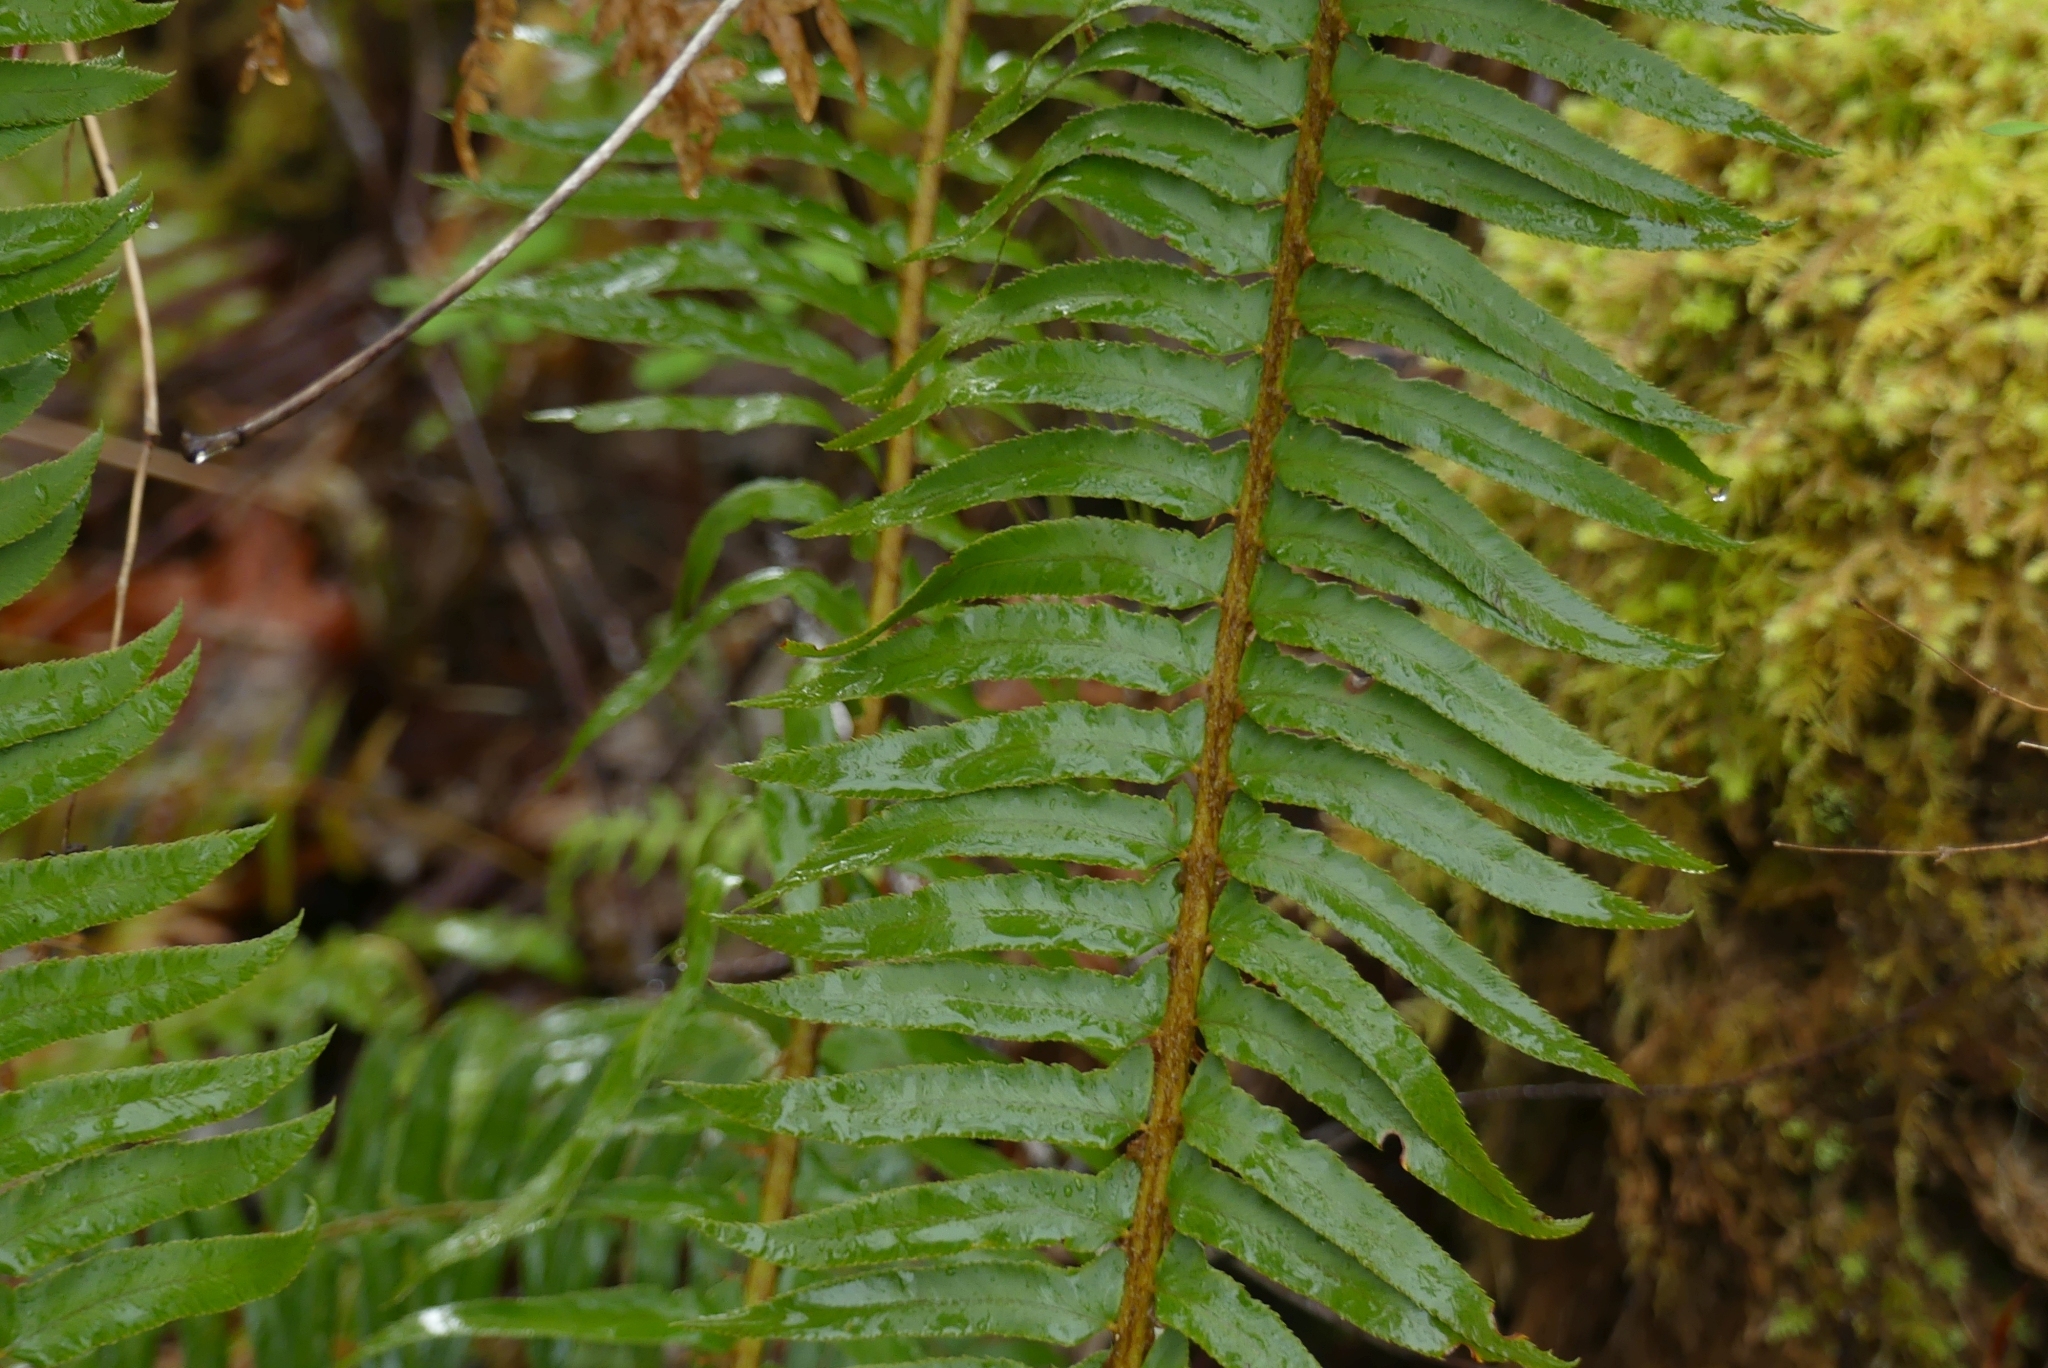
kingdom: Plantae
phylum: Tracheophyta
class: Polypodiopsida
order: Polypodiales
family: Dryopteridaceae
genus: Polystichum
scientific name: Polystichum munitum
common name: Western sword-fern
